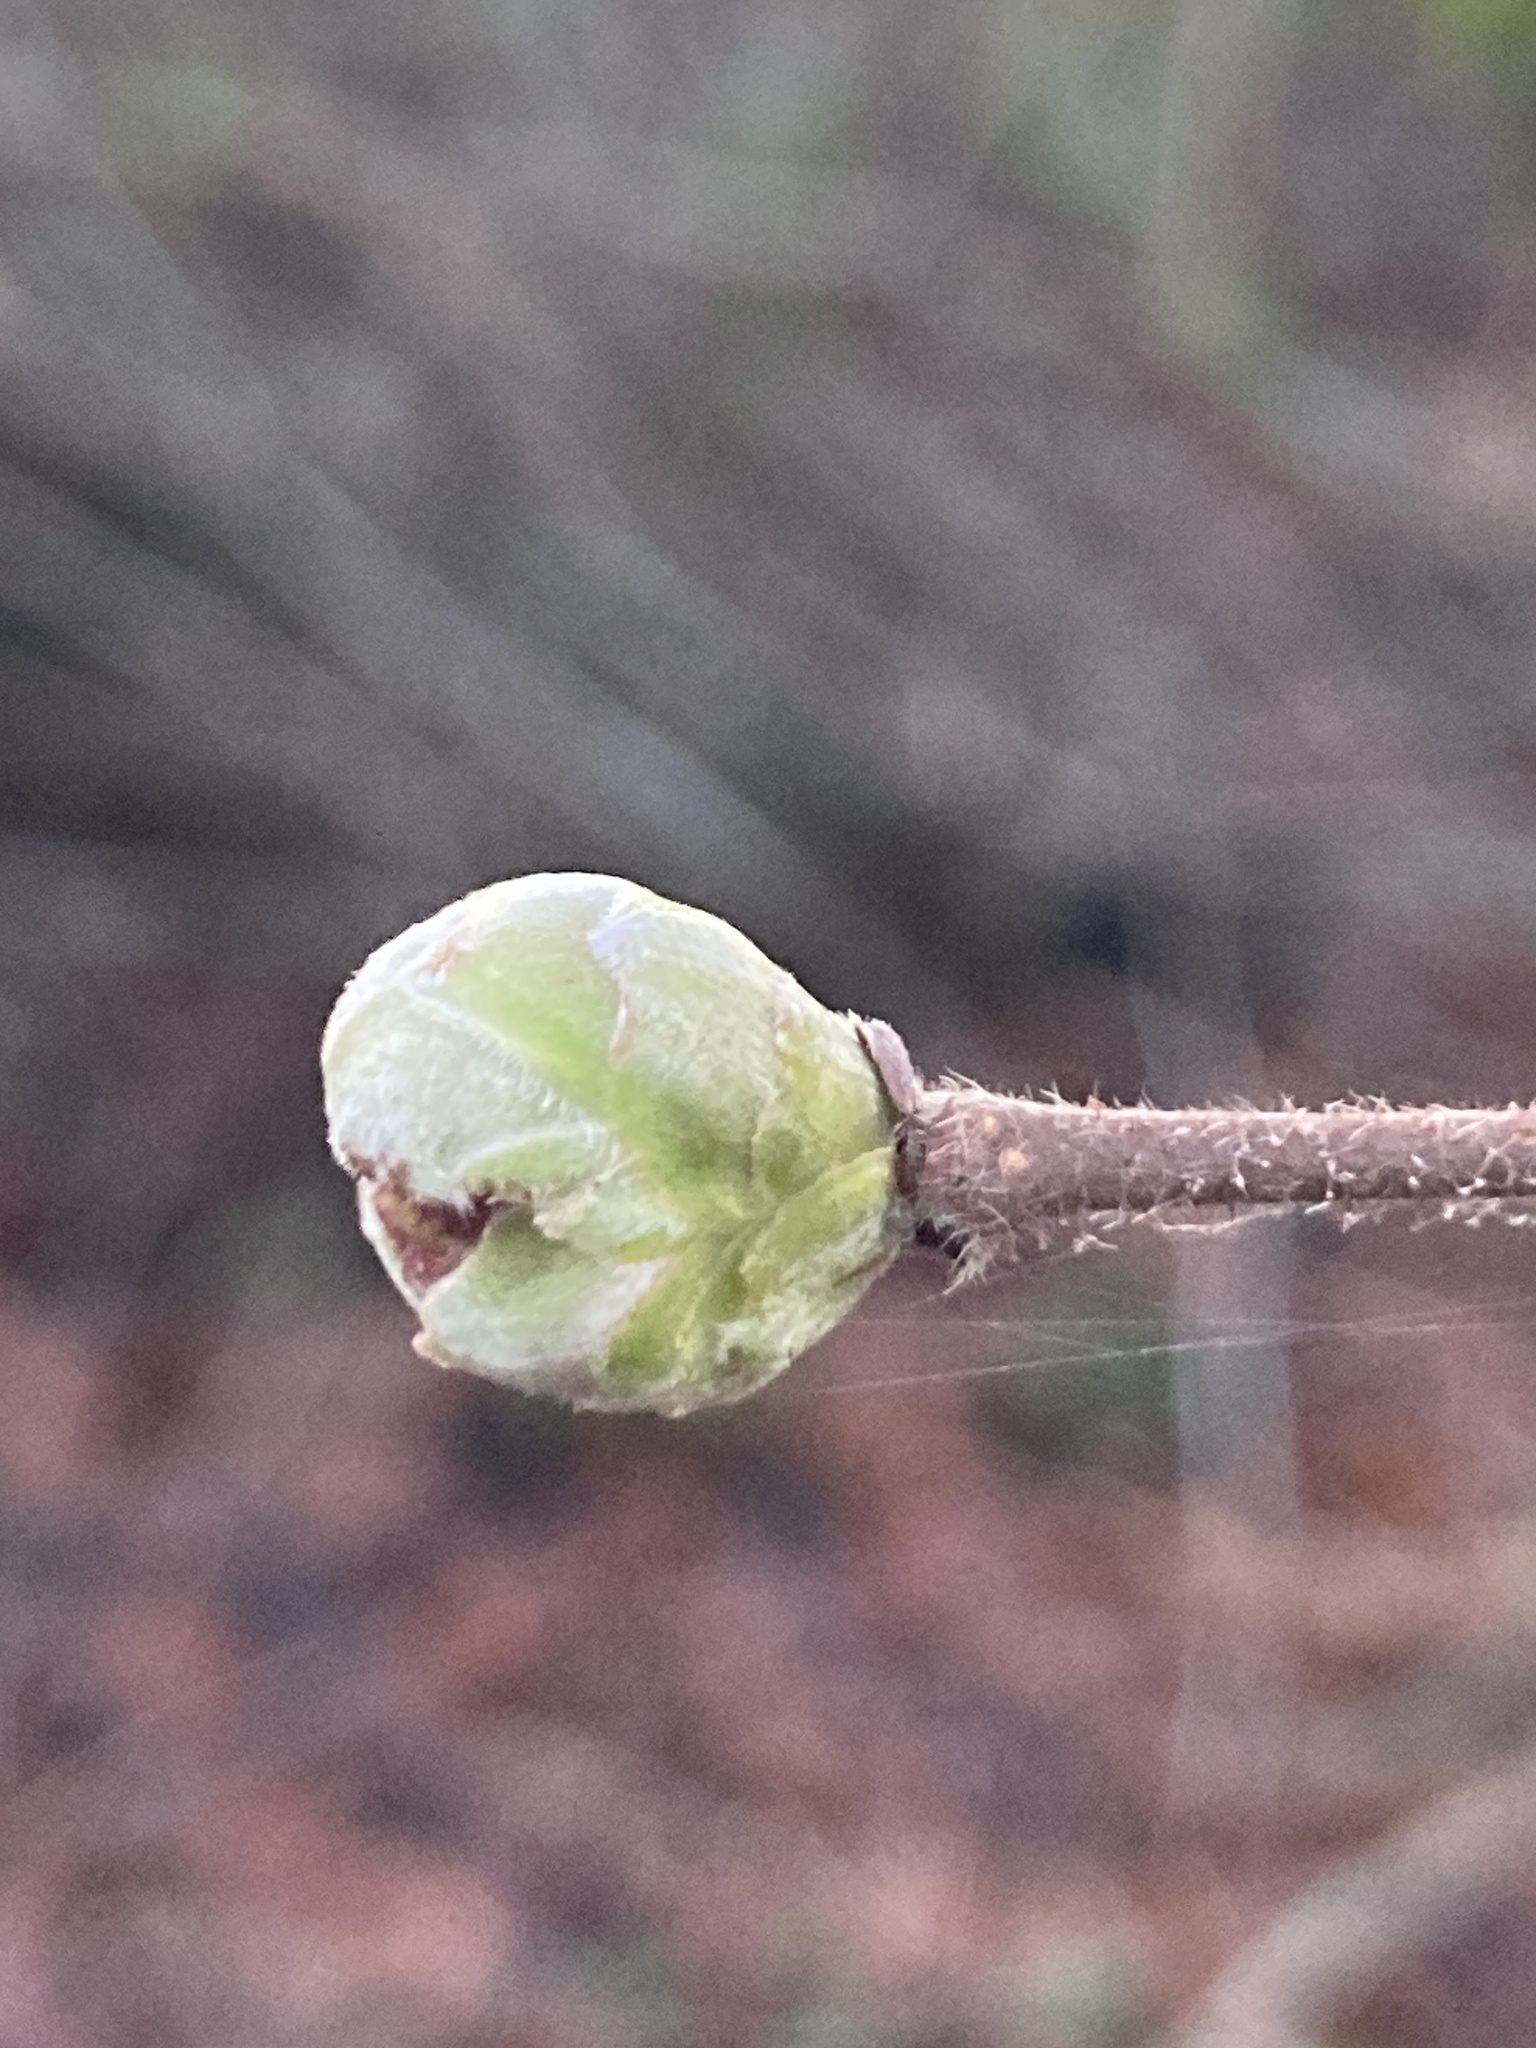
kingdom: Animalia
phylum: Arthropoda
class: Arachnida
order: Trombidiformes
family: Phytoptidae
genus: Phytoptus
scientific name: Phytoptus avellanae
